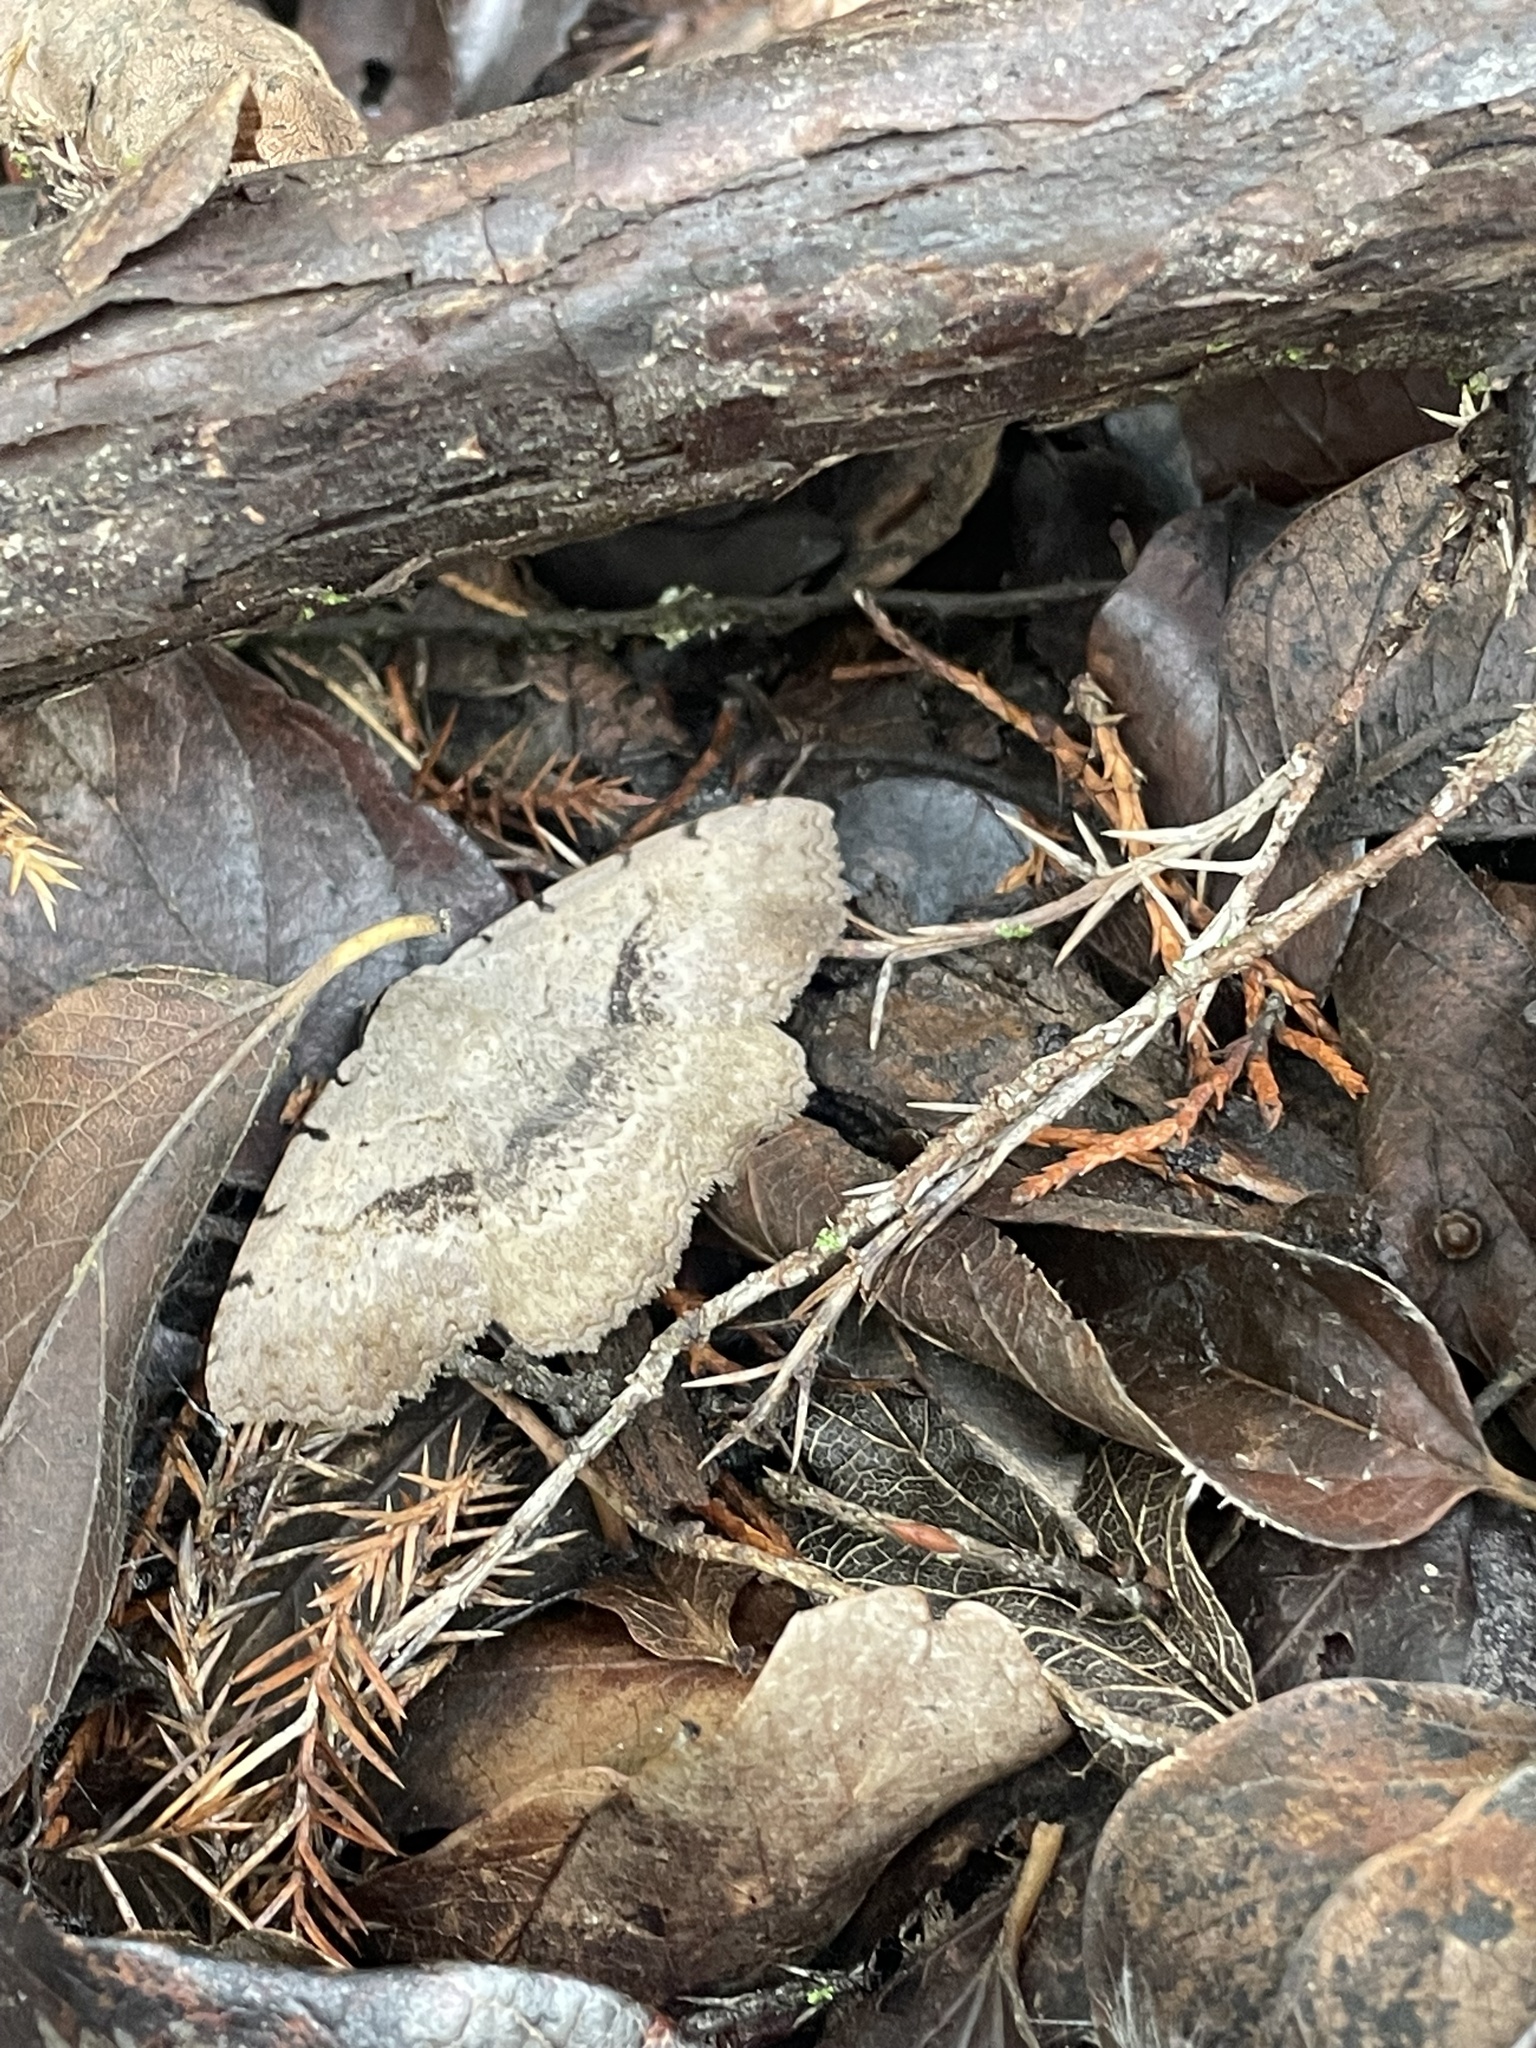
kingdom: Animalia
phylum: Arthropoda
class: Insecta
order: Lepidoptera
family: Erebidae
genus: Spiloloma
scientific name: Spiloloma lunilinea
